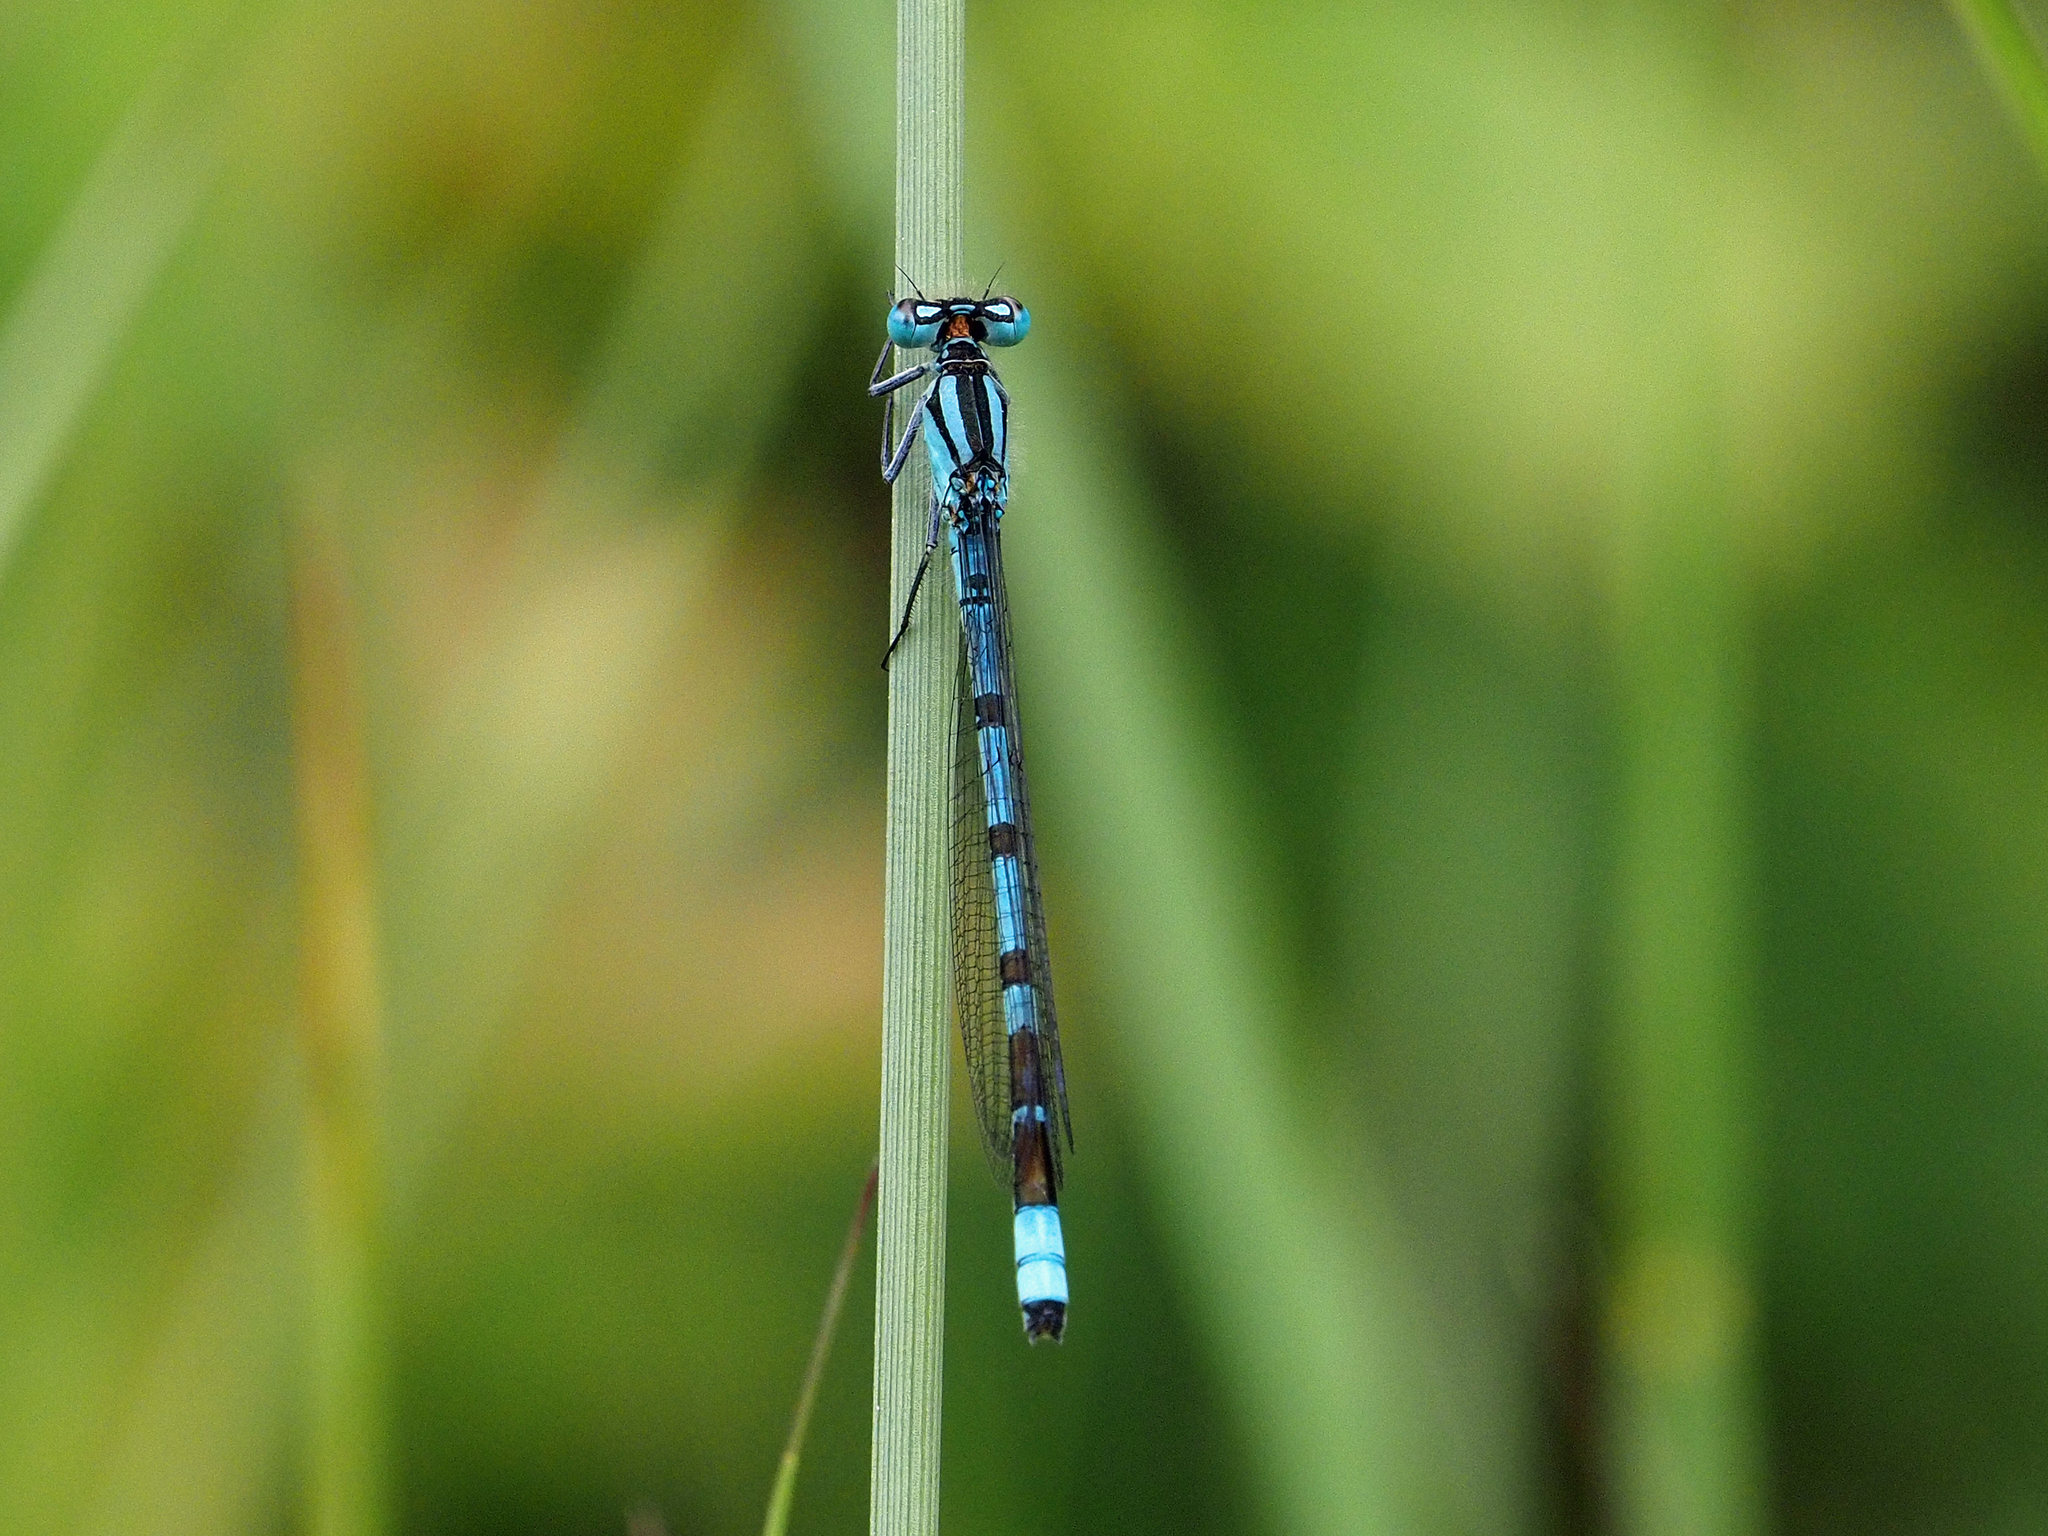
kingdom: Animalia
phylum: Arthropoda
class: Insecta
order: Odonata
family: Coenagrionidae
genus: Enallagma
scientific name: Enallagma cyathigerum
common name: Common blue damselfly
